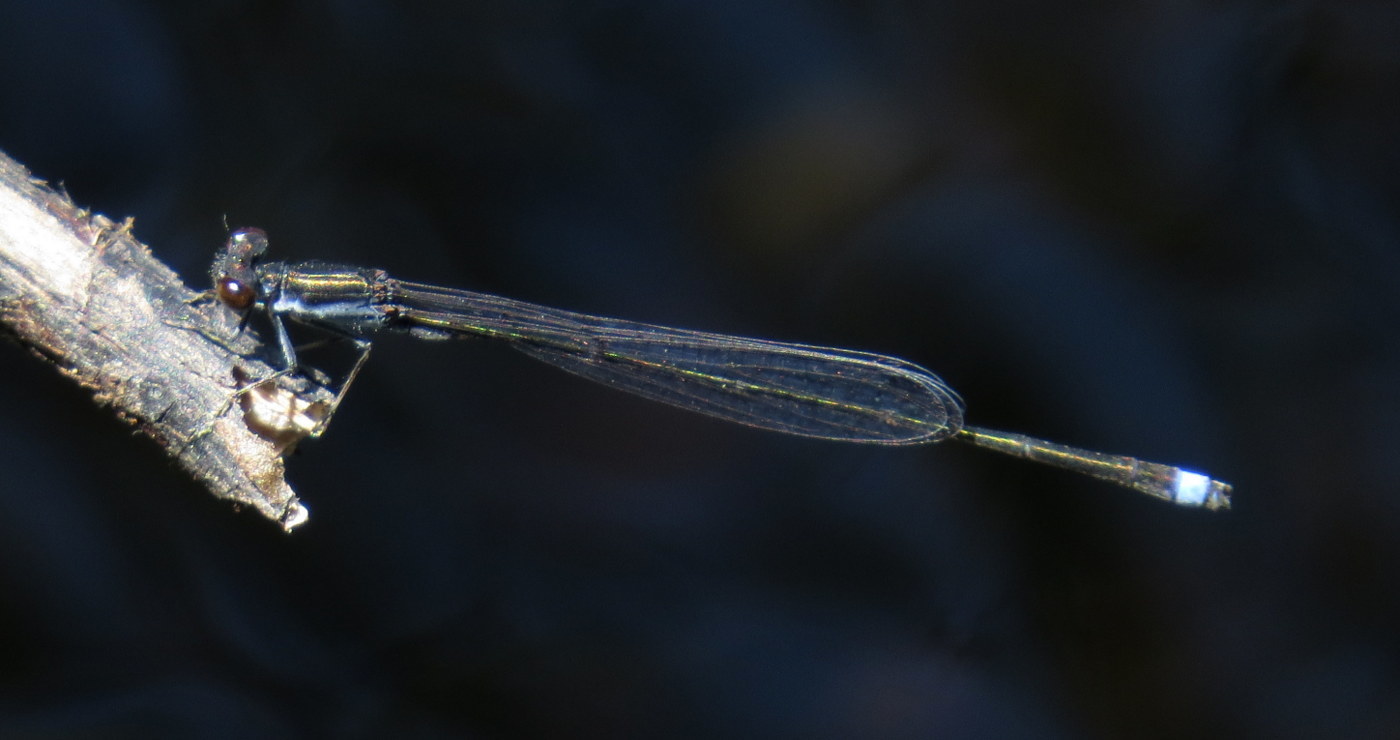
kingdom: Animalia
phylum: Arthropoda
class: Insecta
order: Odonata
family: Coenagrionidae
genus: Enallagma
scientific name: Enallagma weewa
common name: Blackwater bluet
